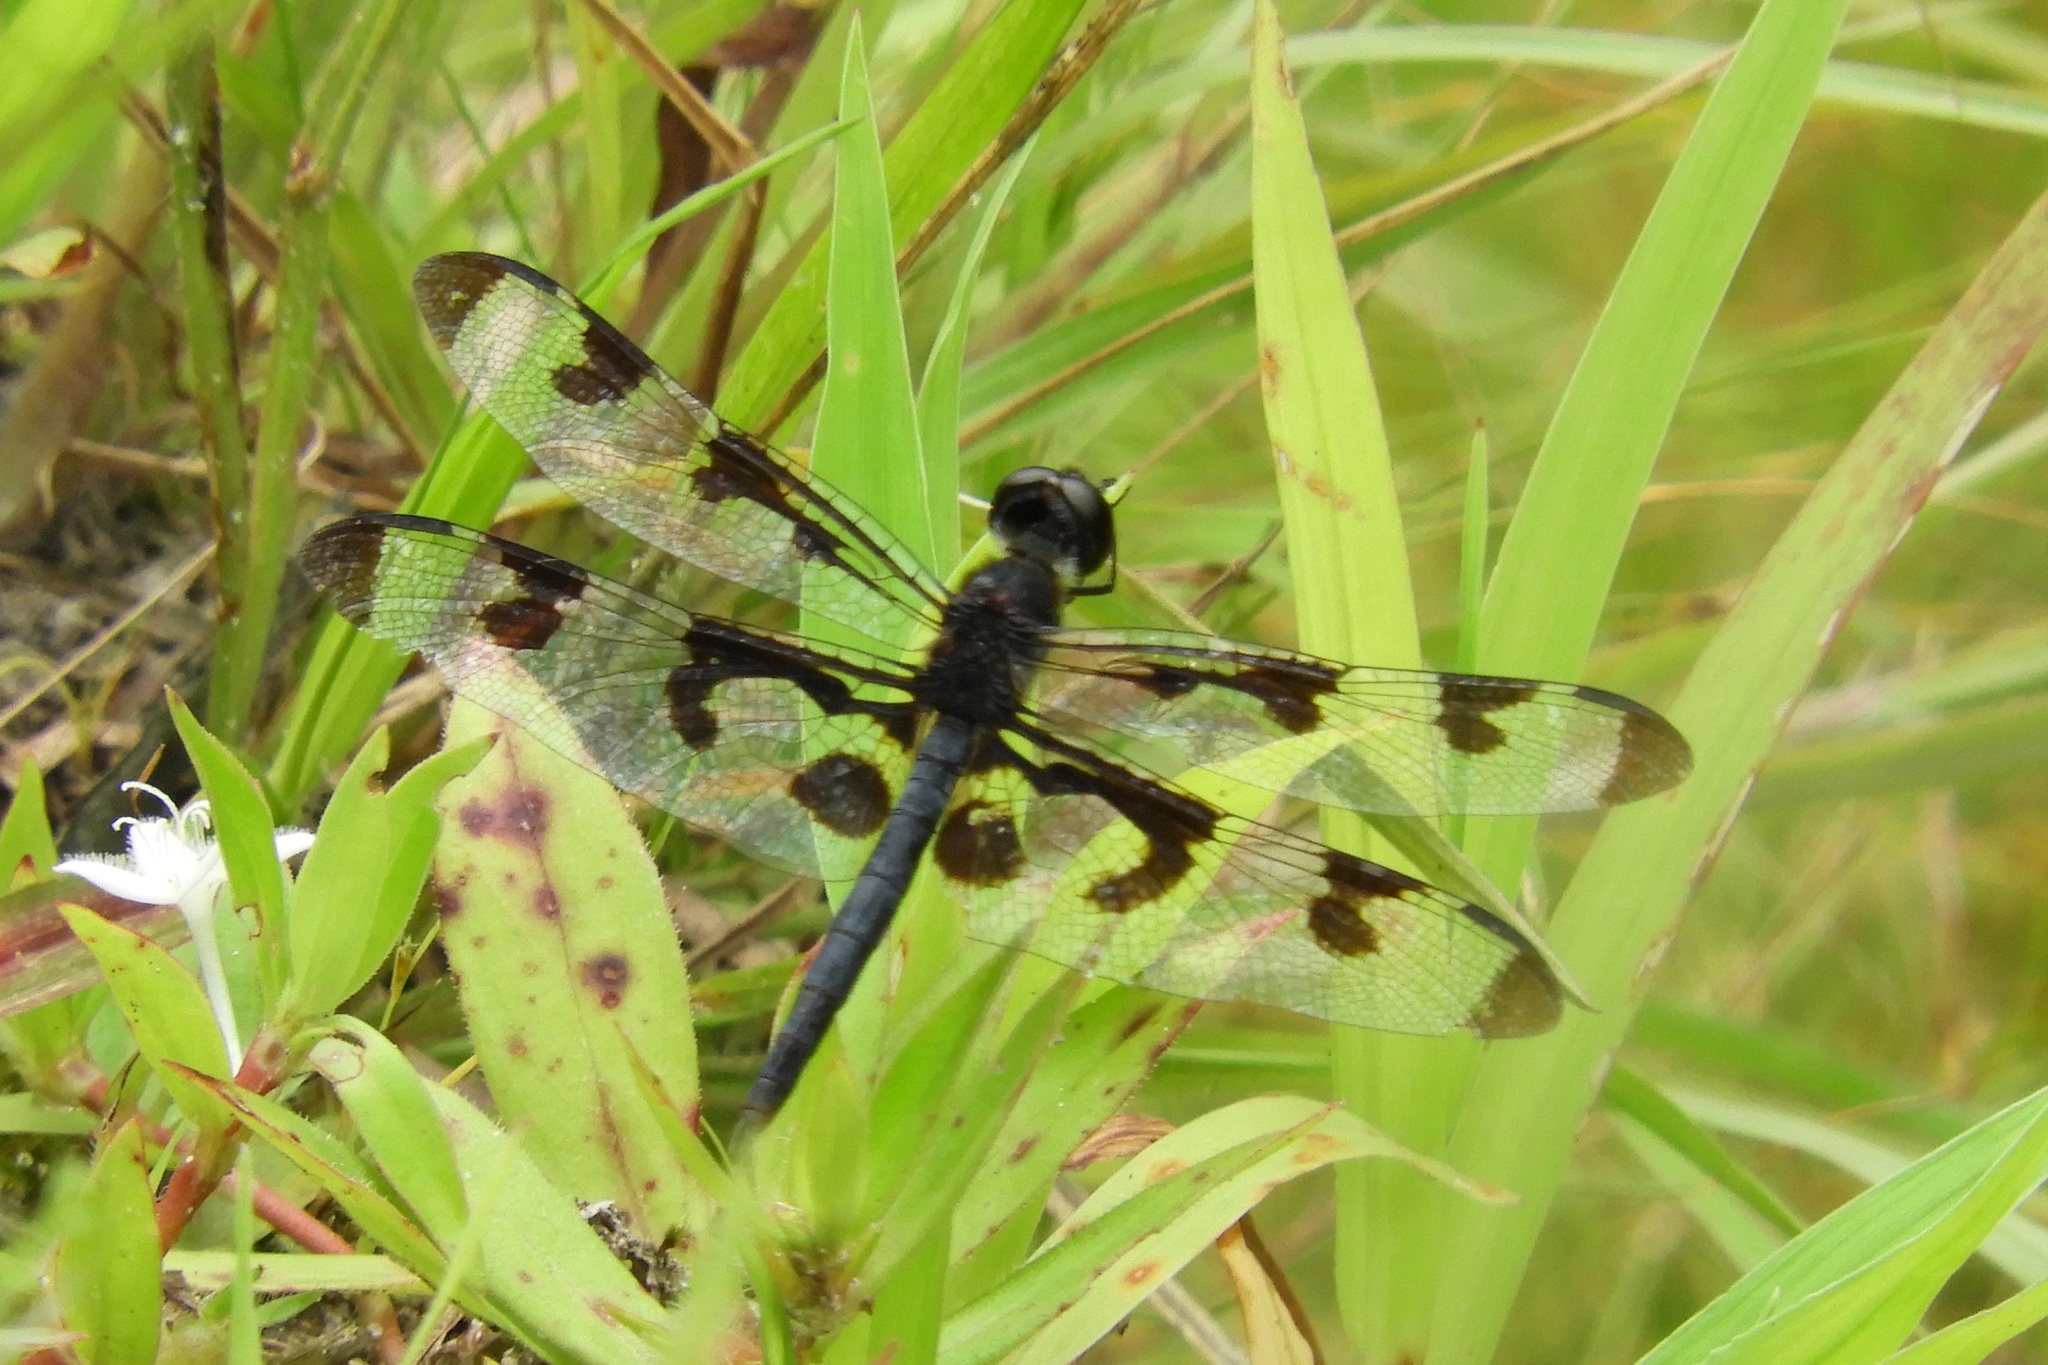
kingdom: Animalia
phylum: Arthropoda
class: Insecta
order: Odonata
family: Libellulidae
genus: Celithemis
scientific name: Celithemis fasciata
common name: Banded pennant
